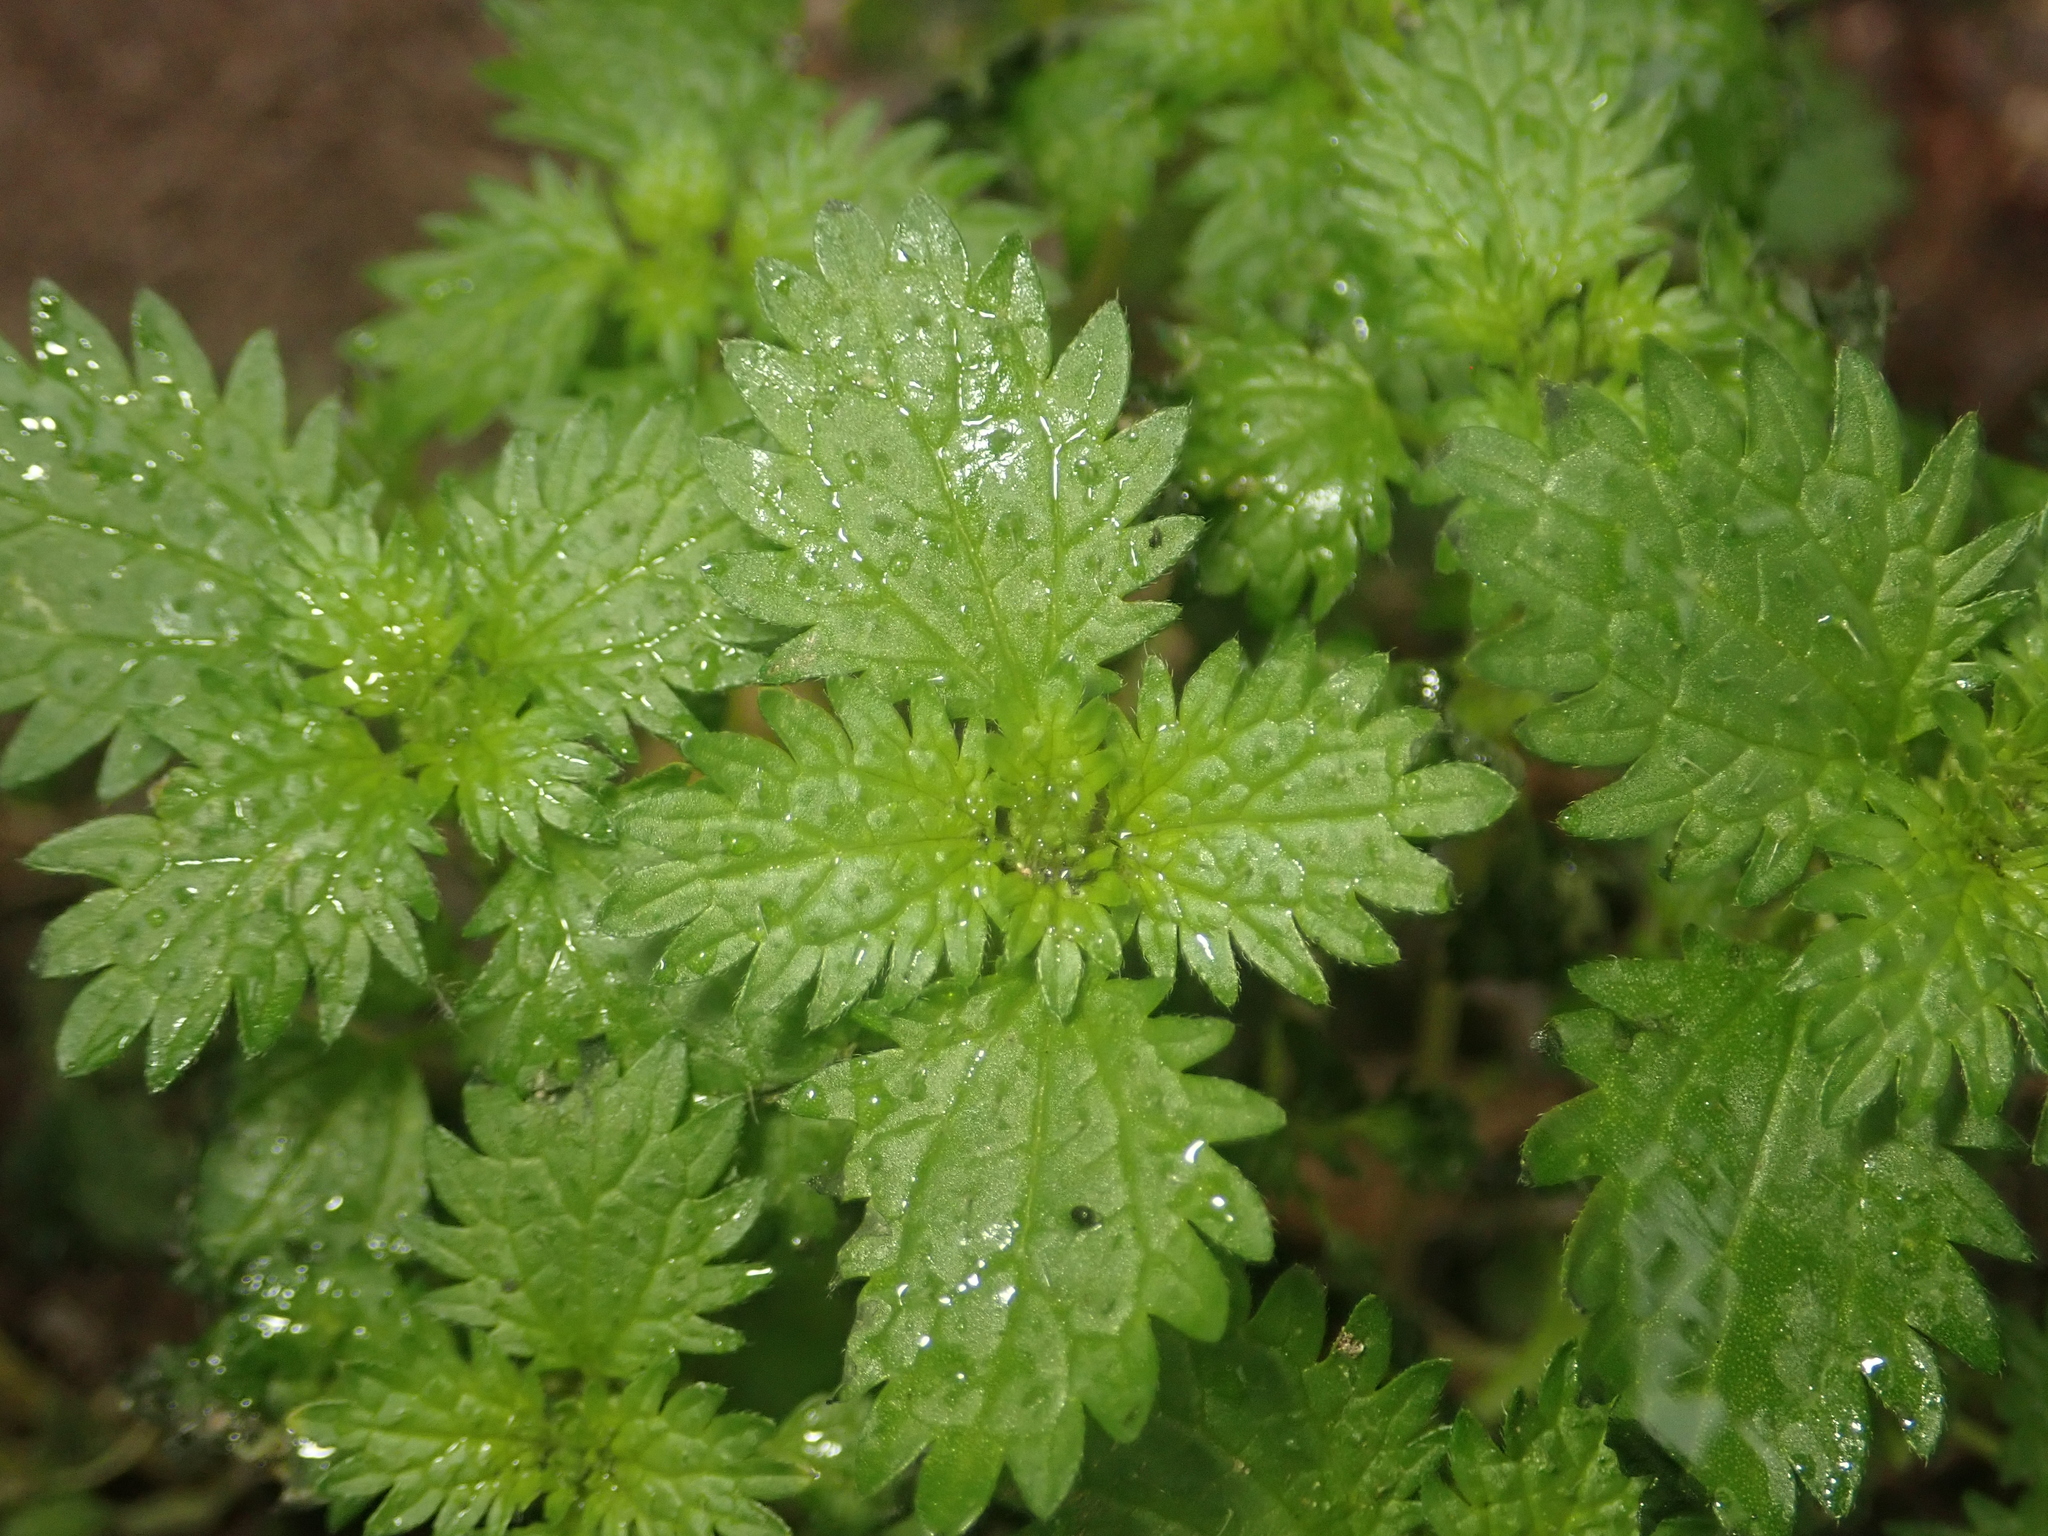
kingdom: Plantae
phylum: Tracheophyta
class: Magnoliopsida
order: Rosales
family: Urticaceae
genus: Urtica
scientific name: Urtica urens
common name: Dwarf nettle
